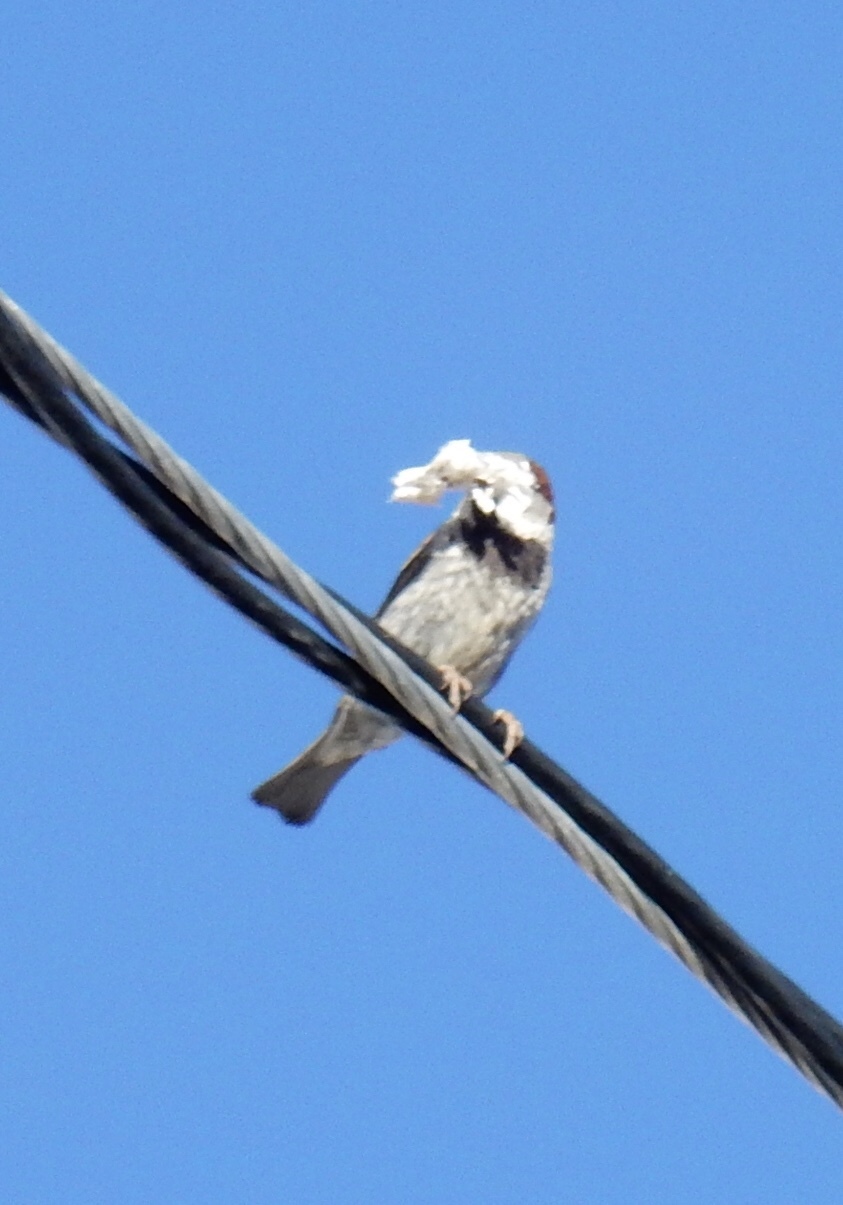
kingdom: Animalia
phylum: Chordata
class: Aves
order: Passeriformes
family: Passeridae
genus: Passer
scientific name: Passer domesticus
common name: House sparrow
